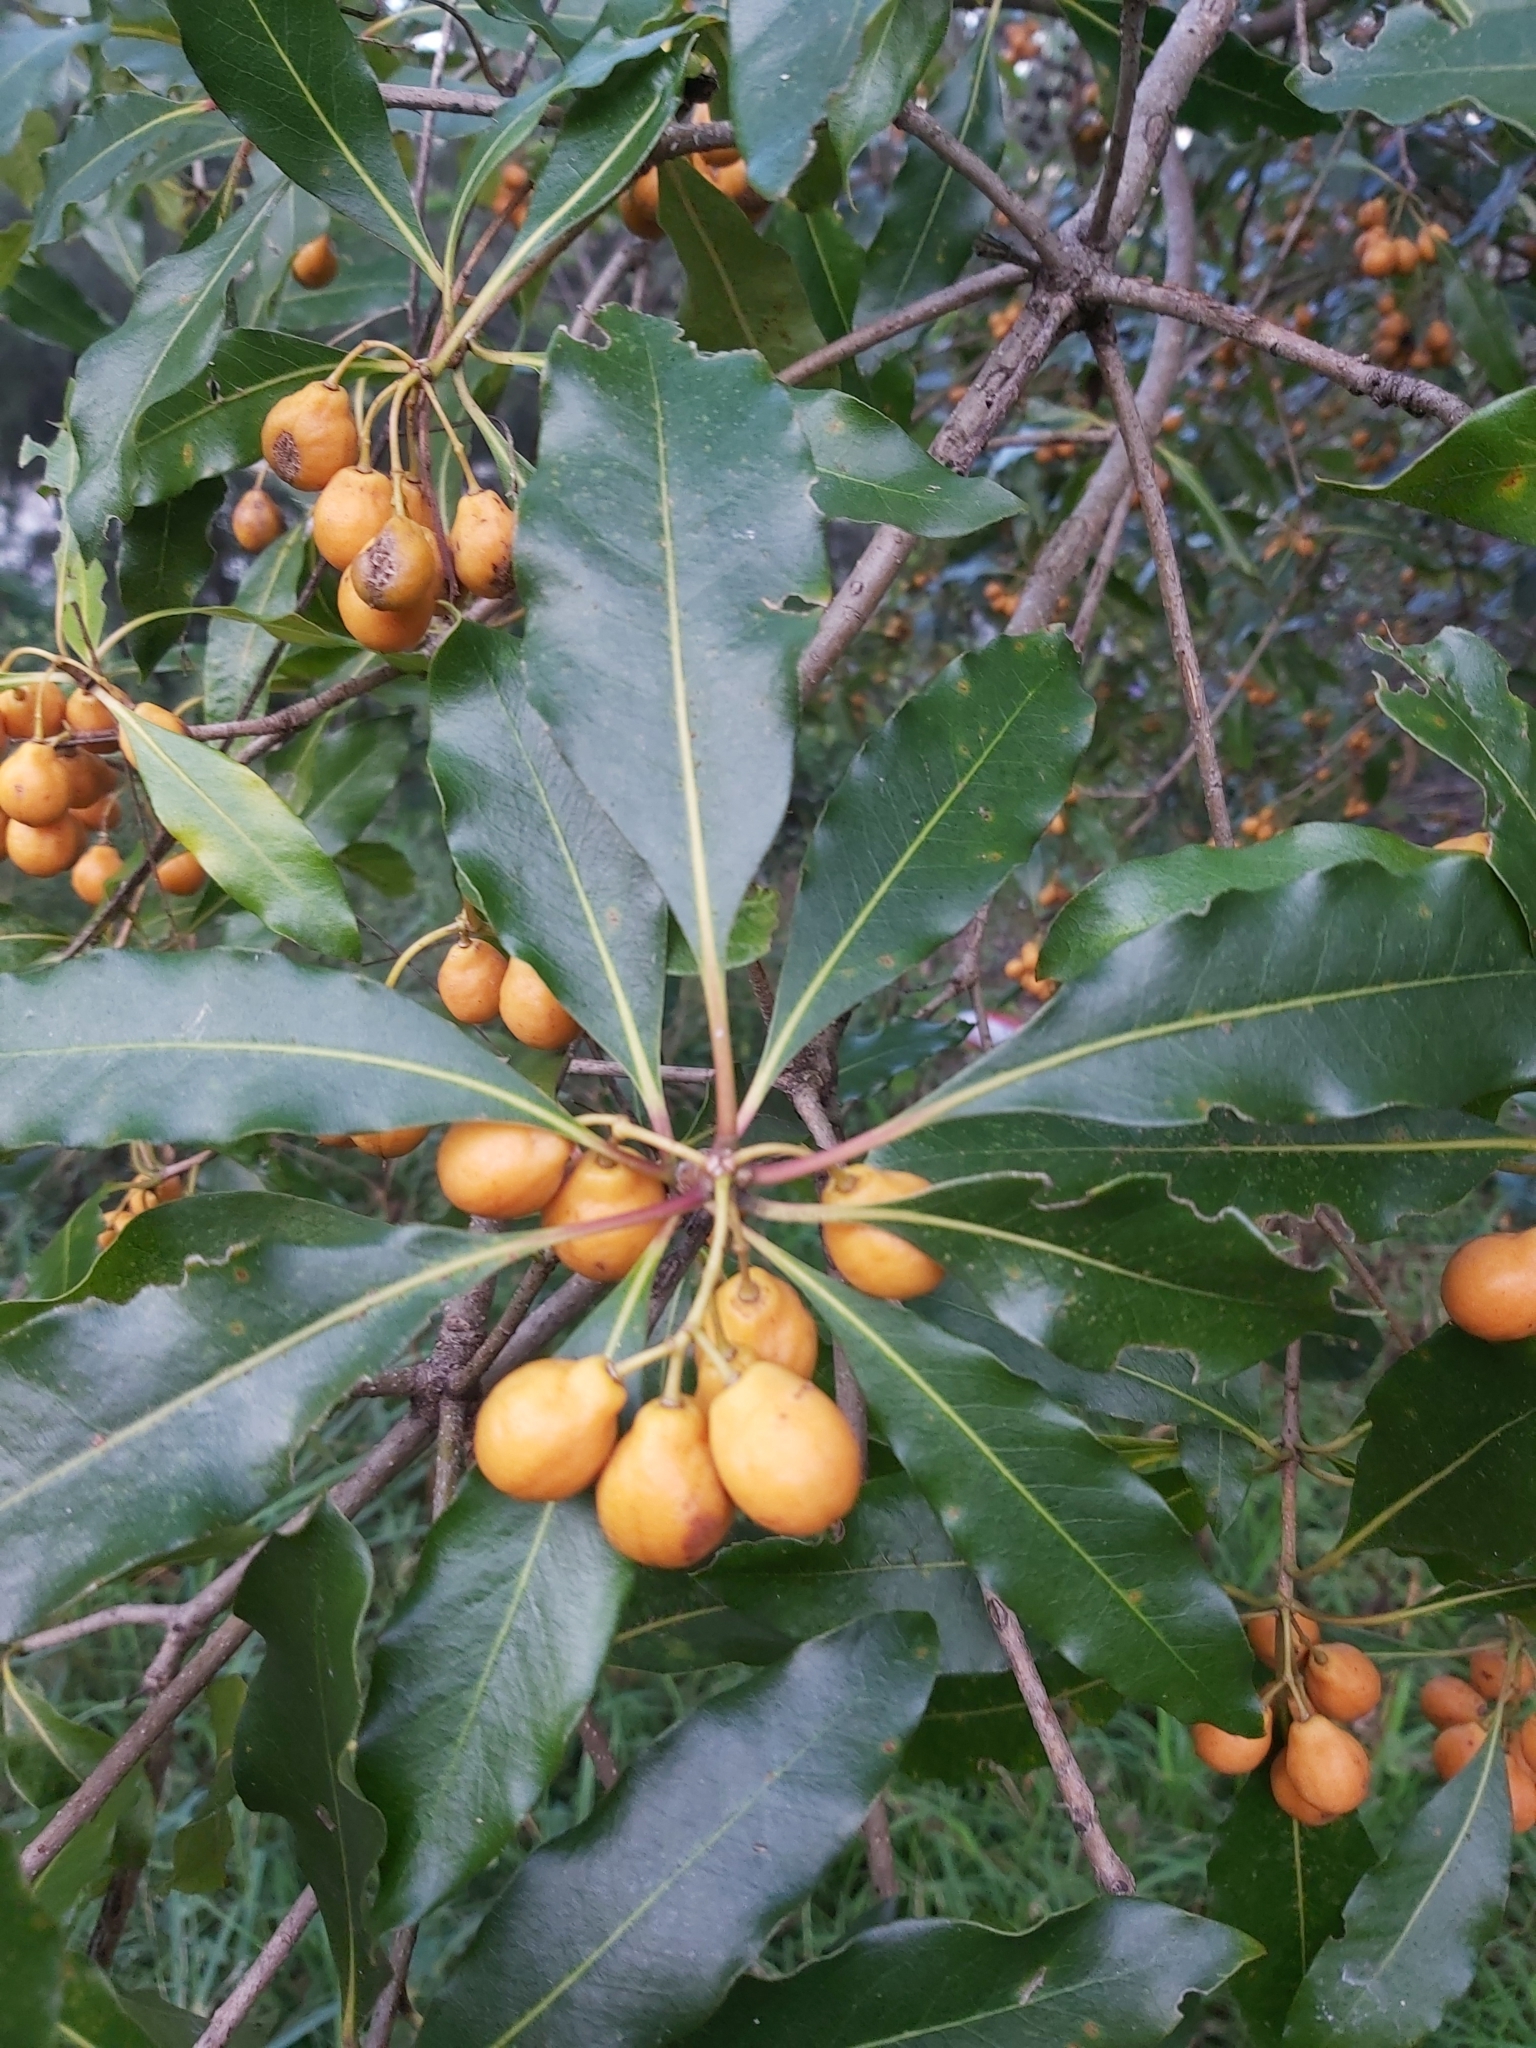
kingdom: Plantae
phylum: Tracheophyta
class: Magnoliopsida
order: Apiales
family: Pittosporaceae
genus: Pittosporum
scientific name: Pittosporum undulatum
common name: Australian cheesewood
